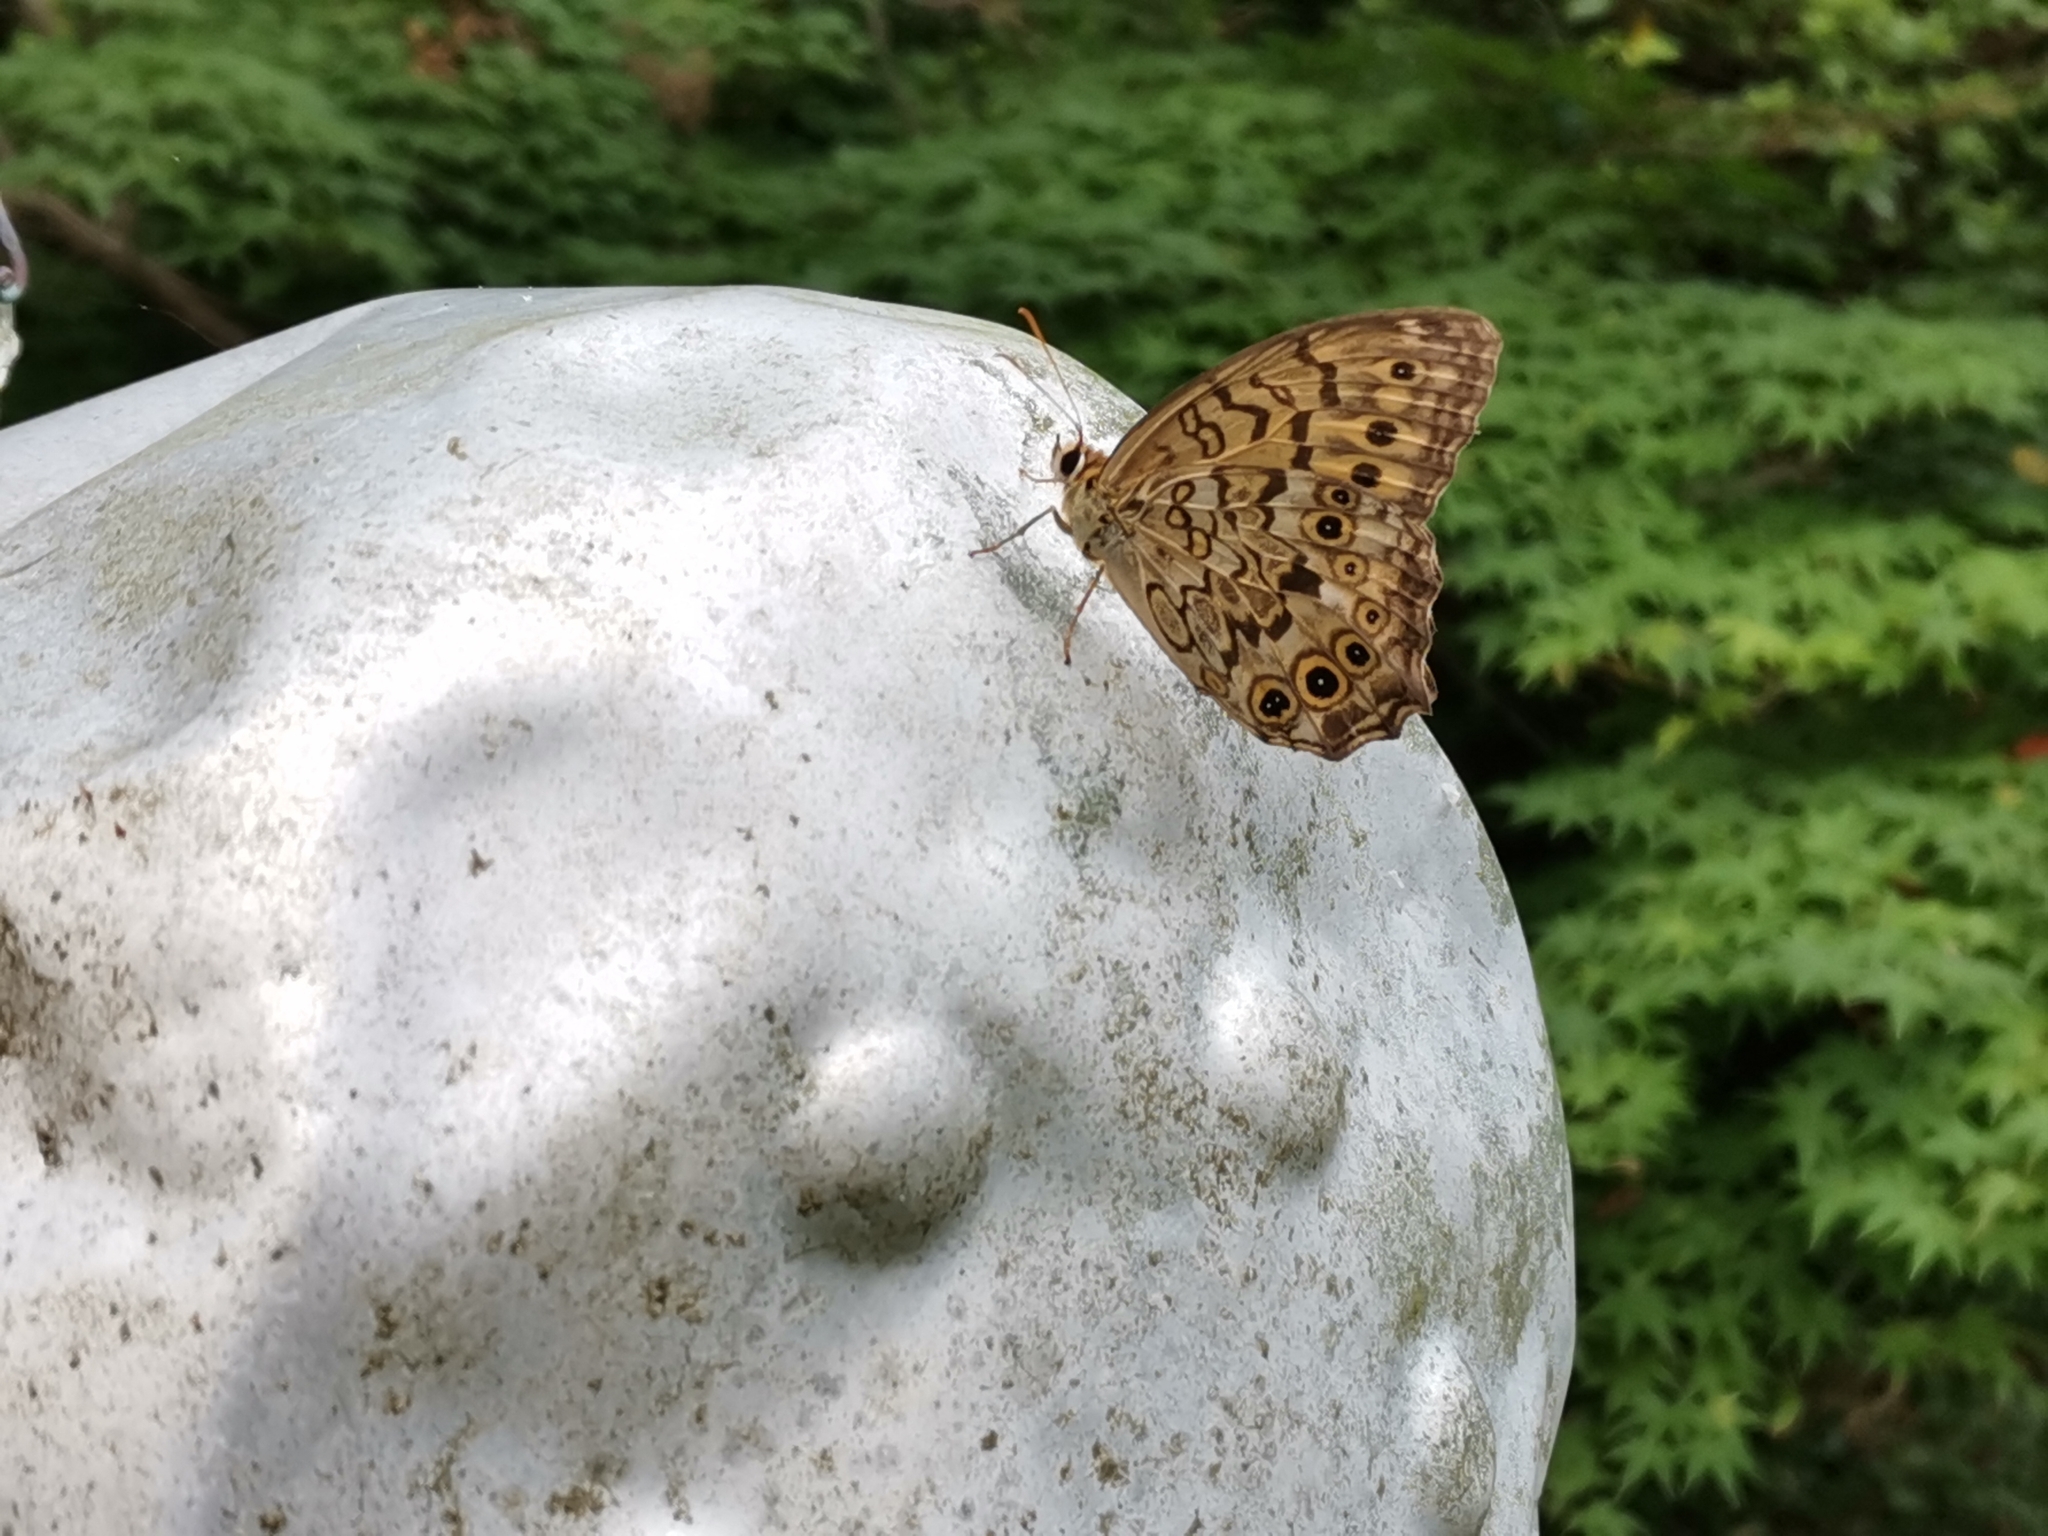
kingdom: Animalia
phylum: Arthropoda
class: Insecta
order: Lepidoptera
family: Nymphalidae
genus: Neope
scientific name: Neope goschkevitschii
